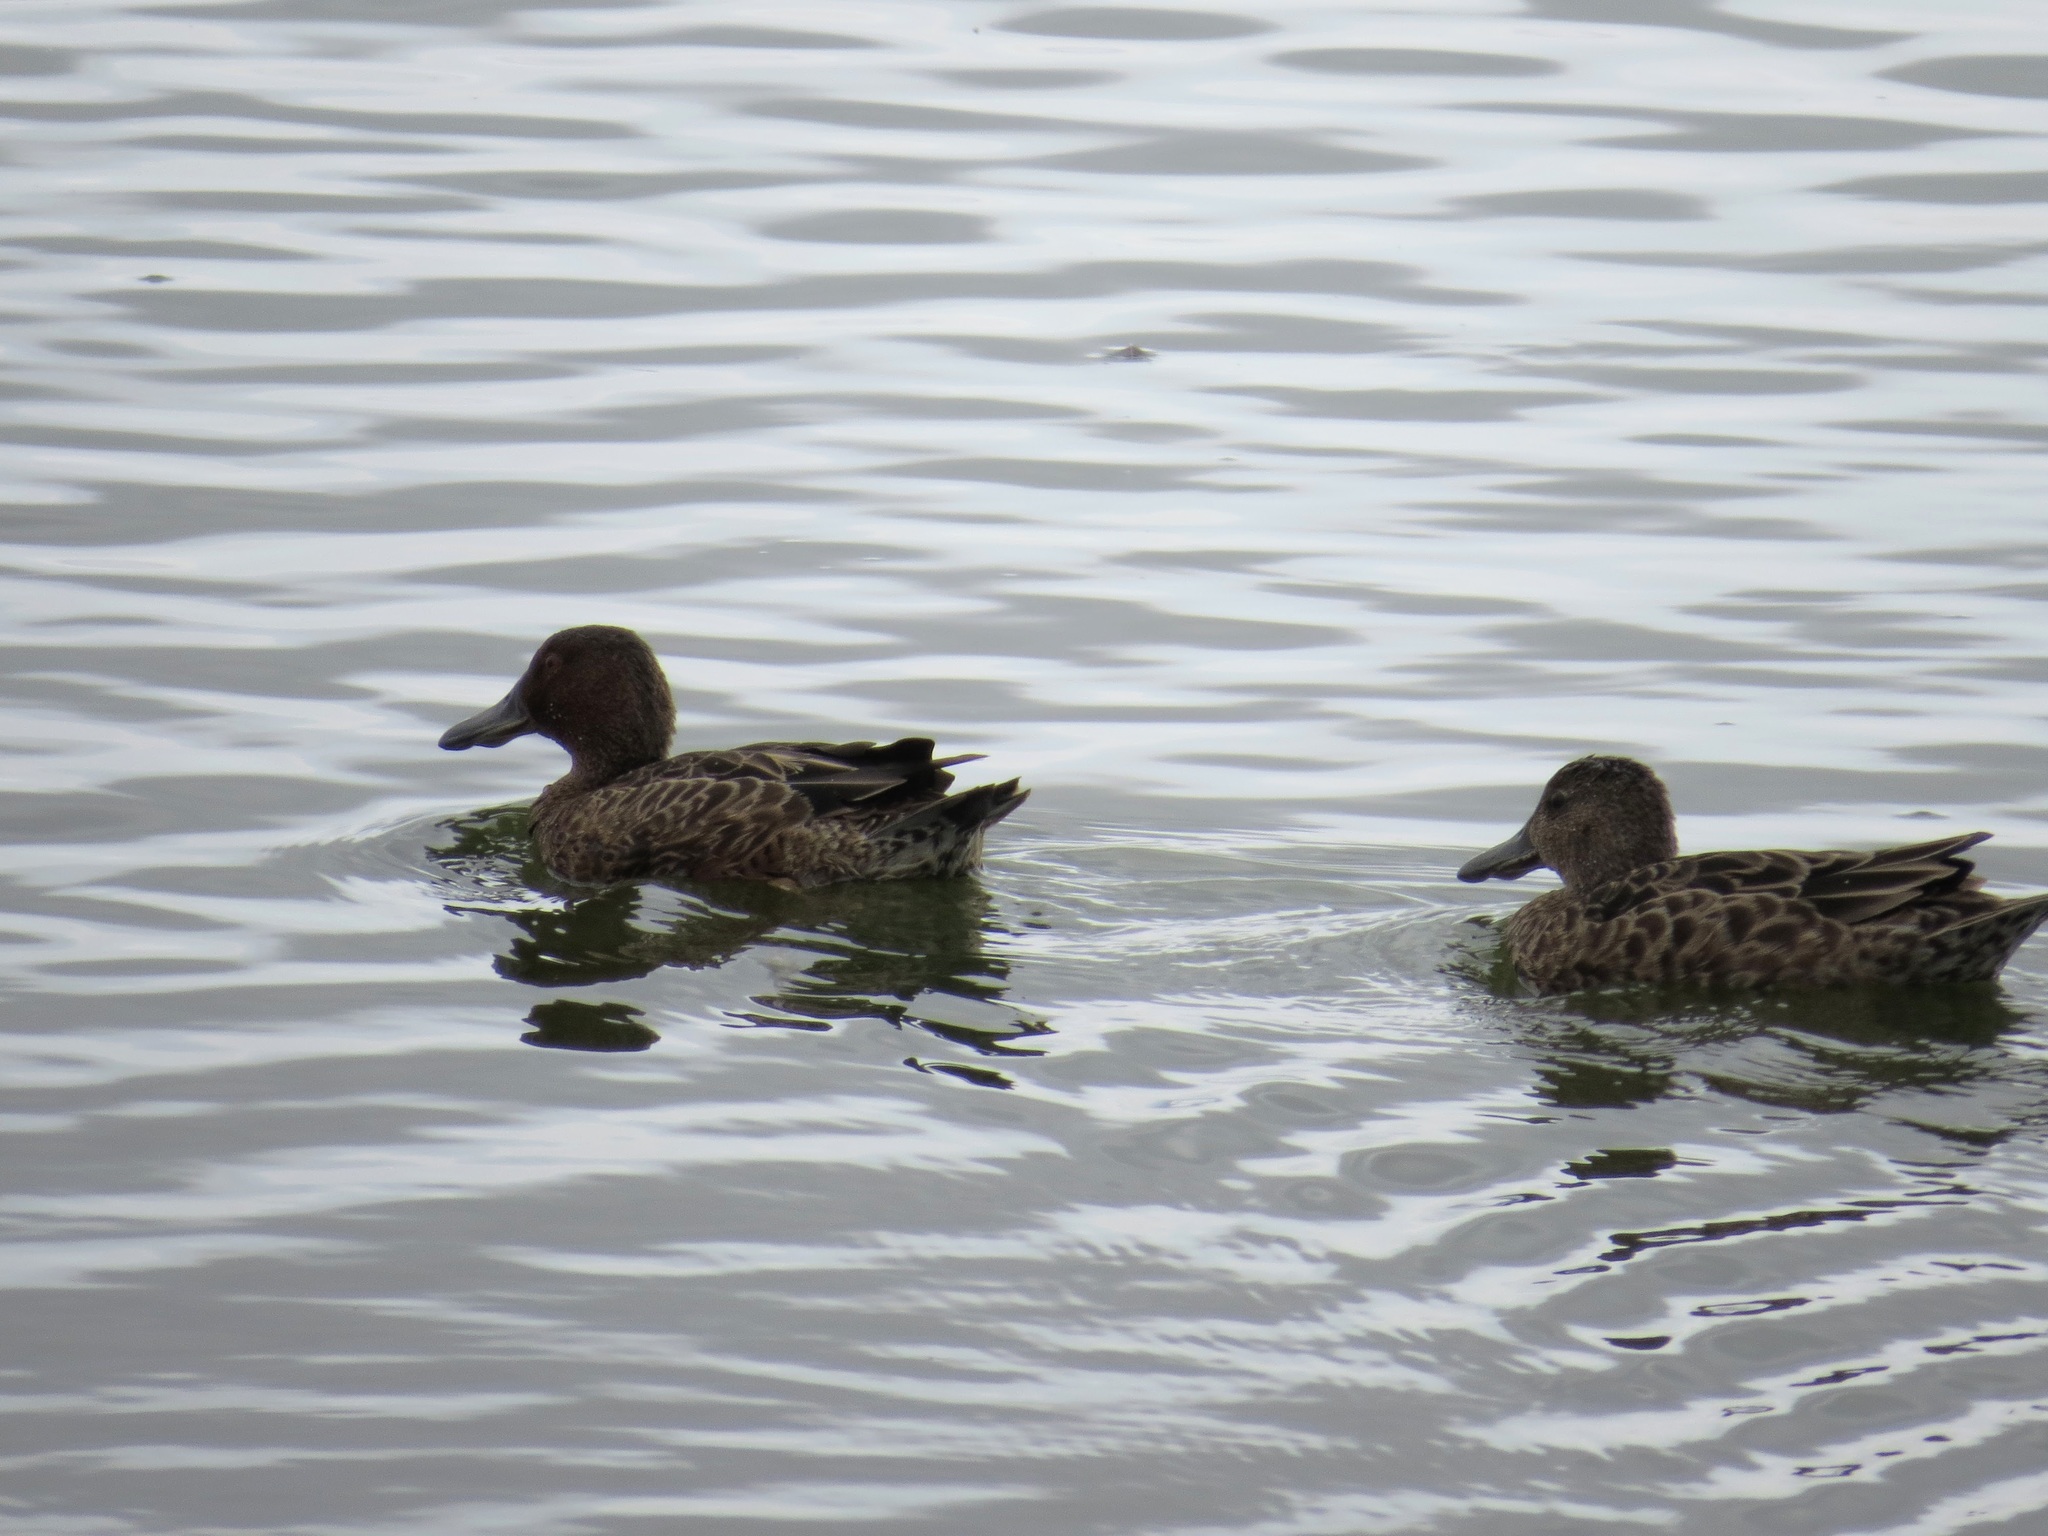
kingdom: Animalia
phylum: Chordata
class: Aves
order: Anseriformes
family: Anatidae
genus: Spatula
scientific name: Spatula cyanoptera
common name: Cinnamon teal
